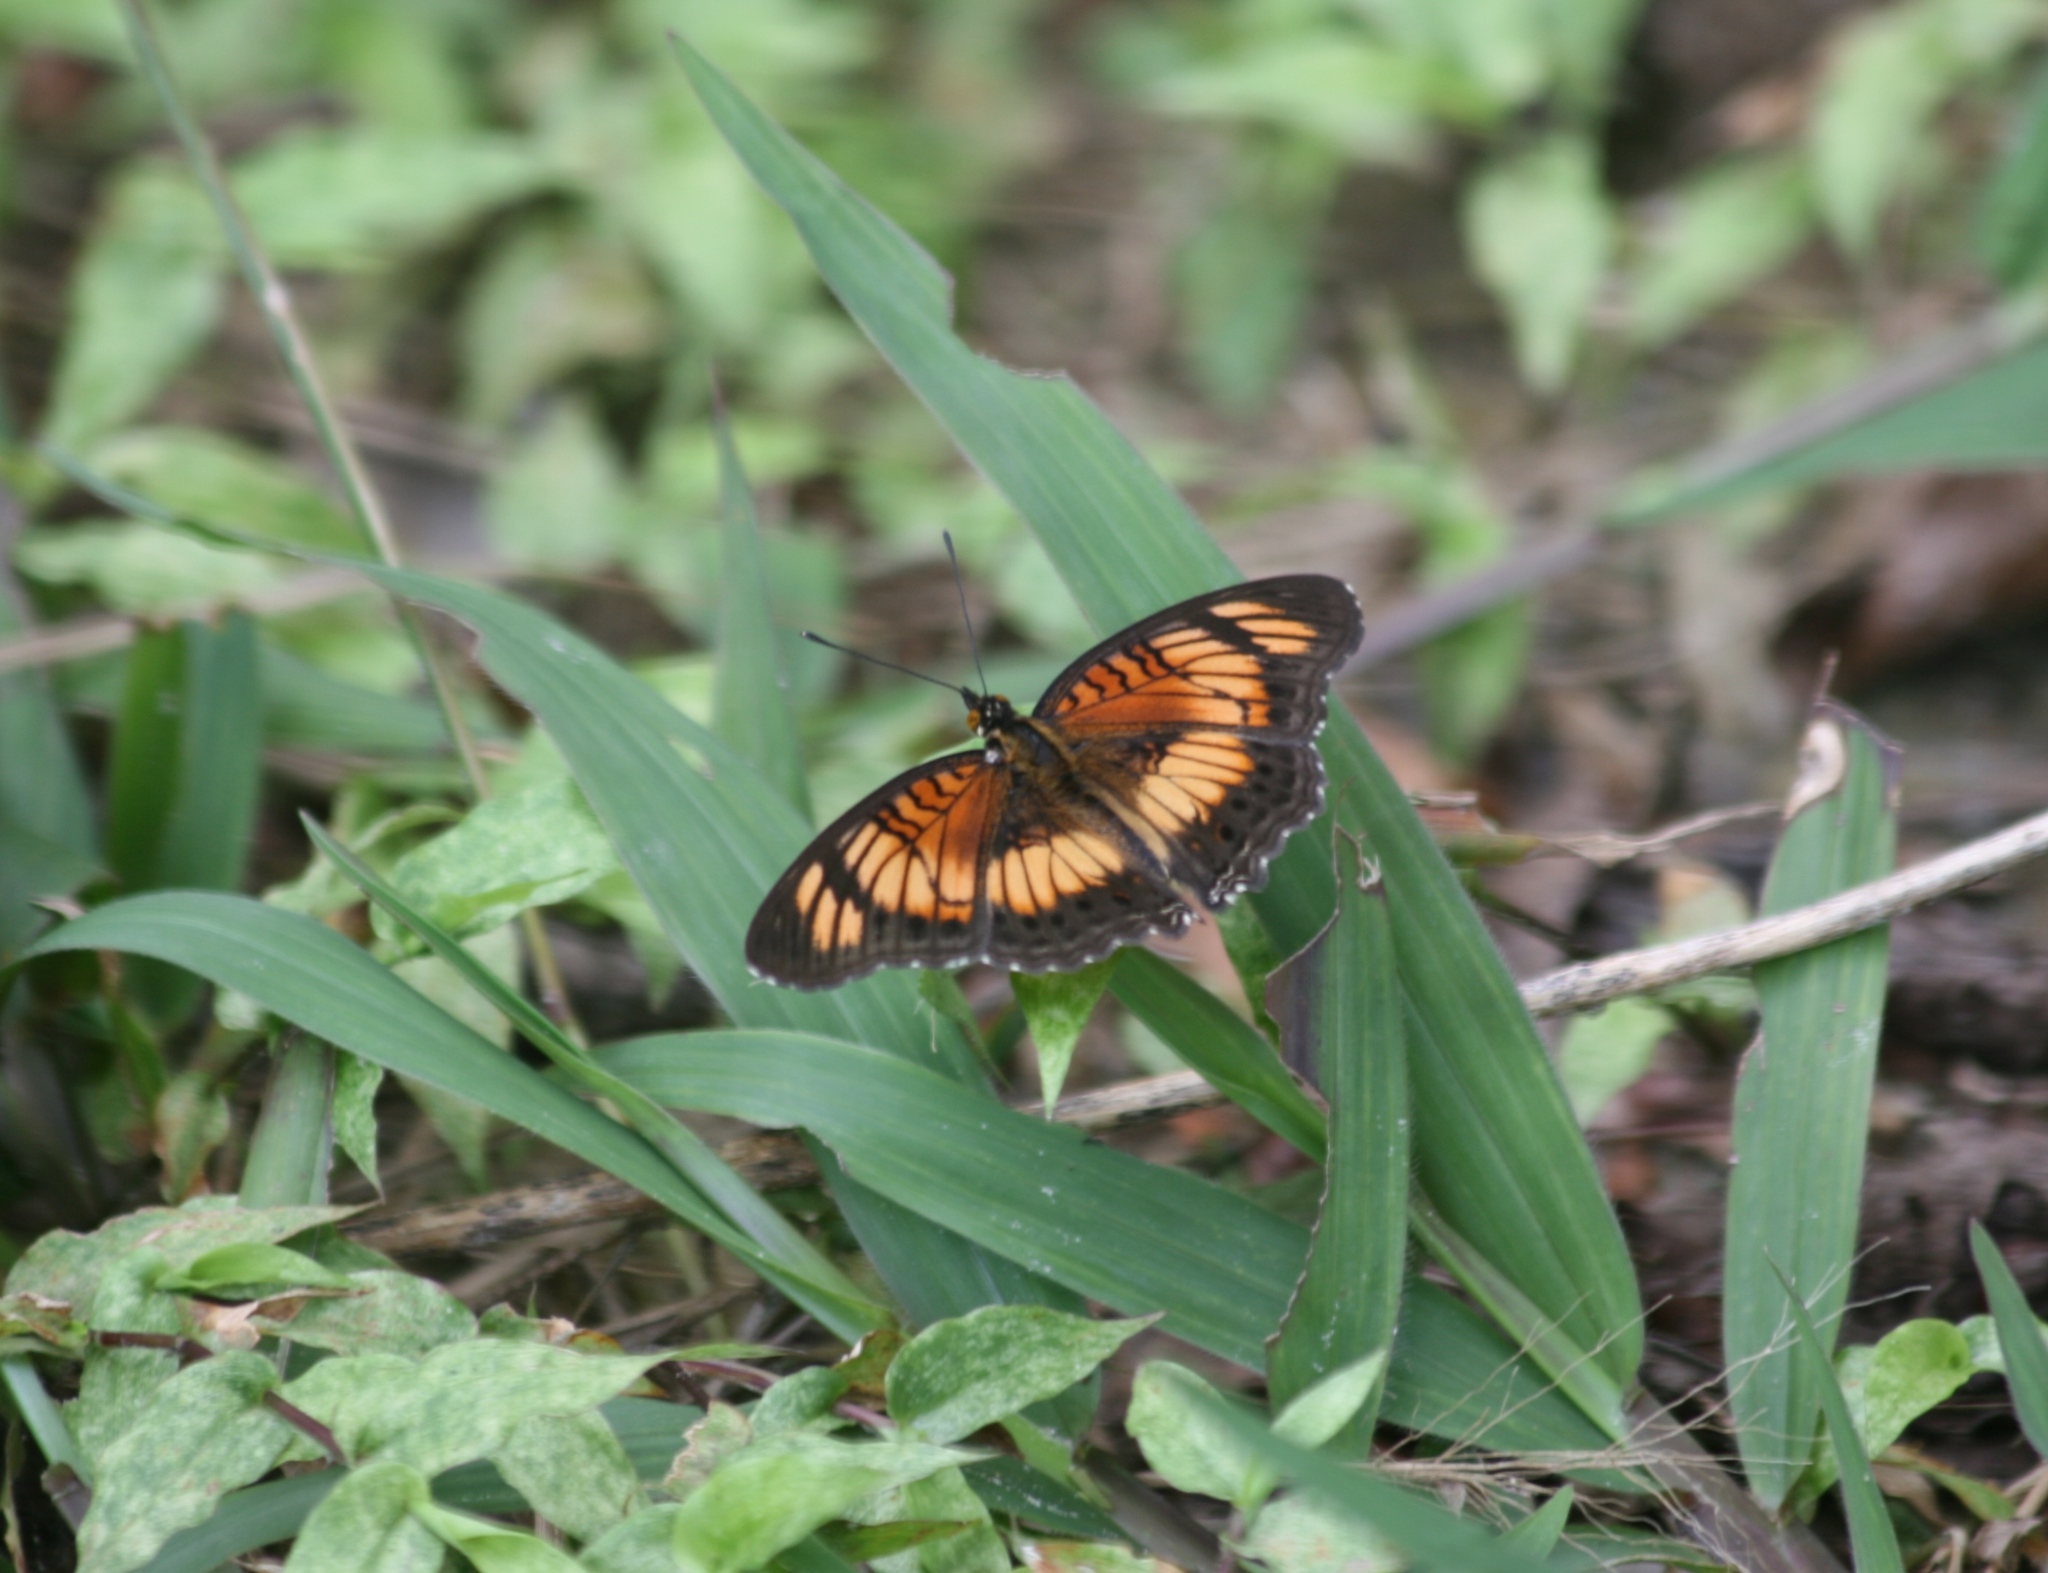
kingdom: Animalia
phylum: Arthropoda
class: Insecta
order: Lepidoptera
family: Nymphalidae
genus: Junonia
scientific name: Junonia sophia
